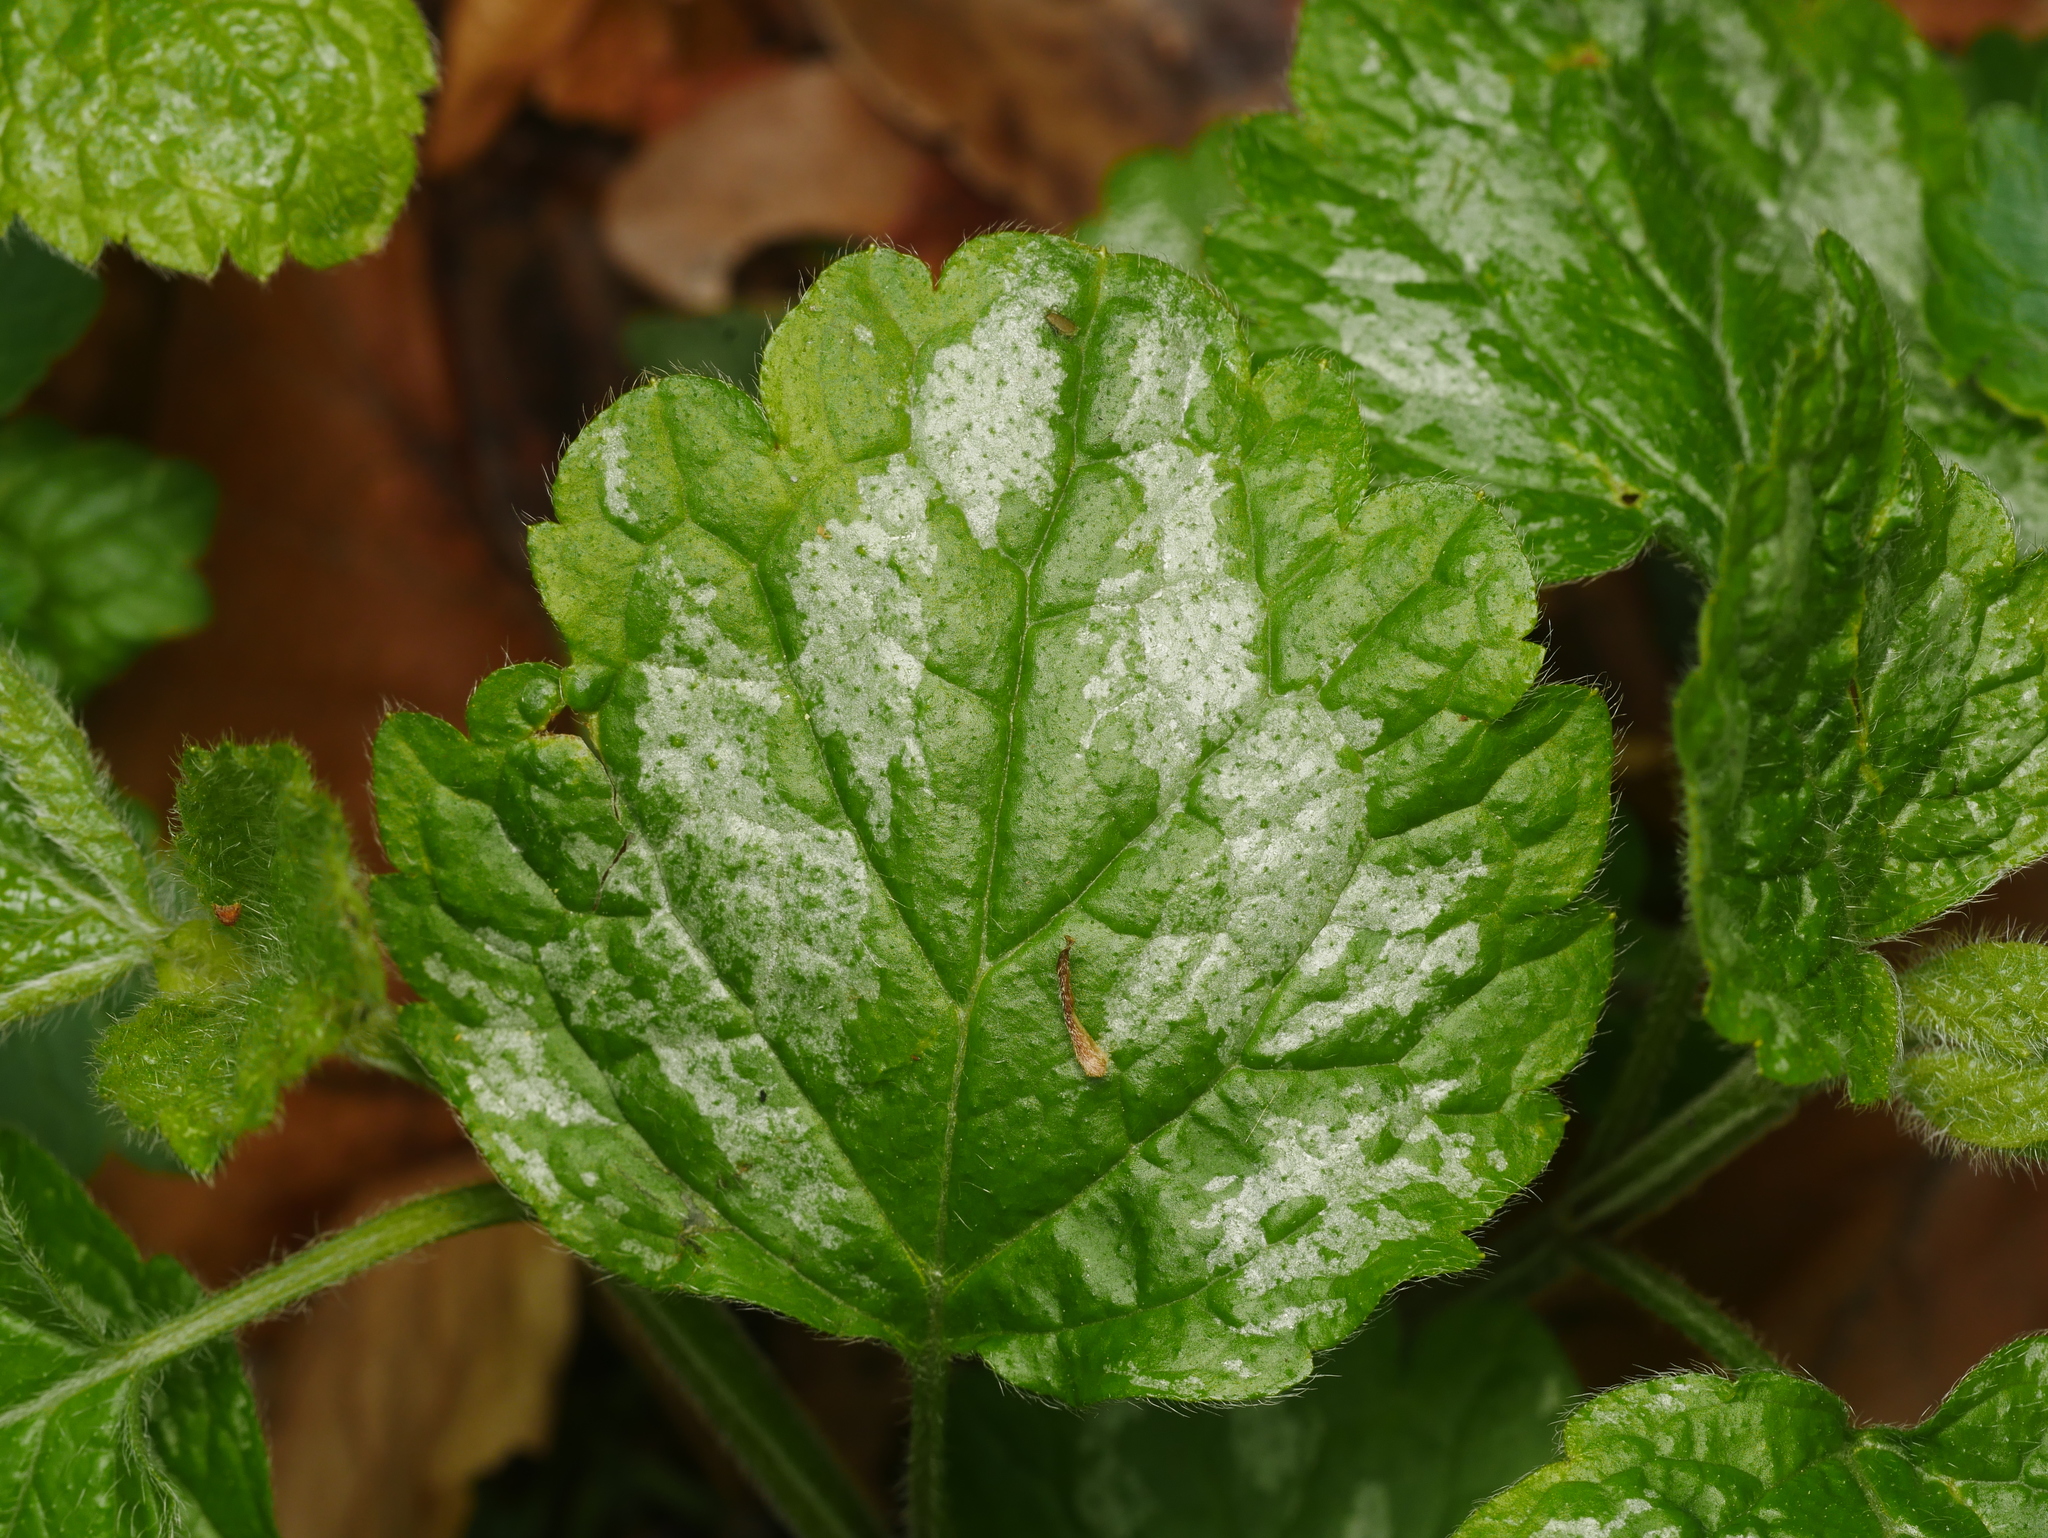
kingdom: Plantae
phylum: Tracheophyta
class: Magnoliopsida
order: Lamiales
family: Lamiaceae
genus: Lamium
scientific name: Lamium galeobdolon
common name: Yellow archangel
